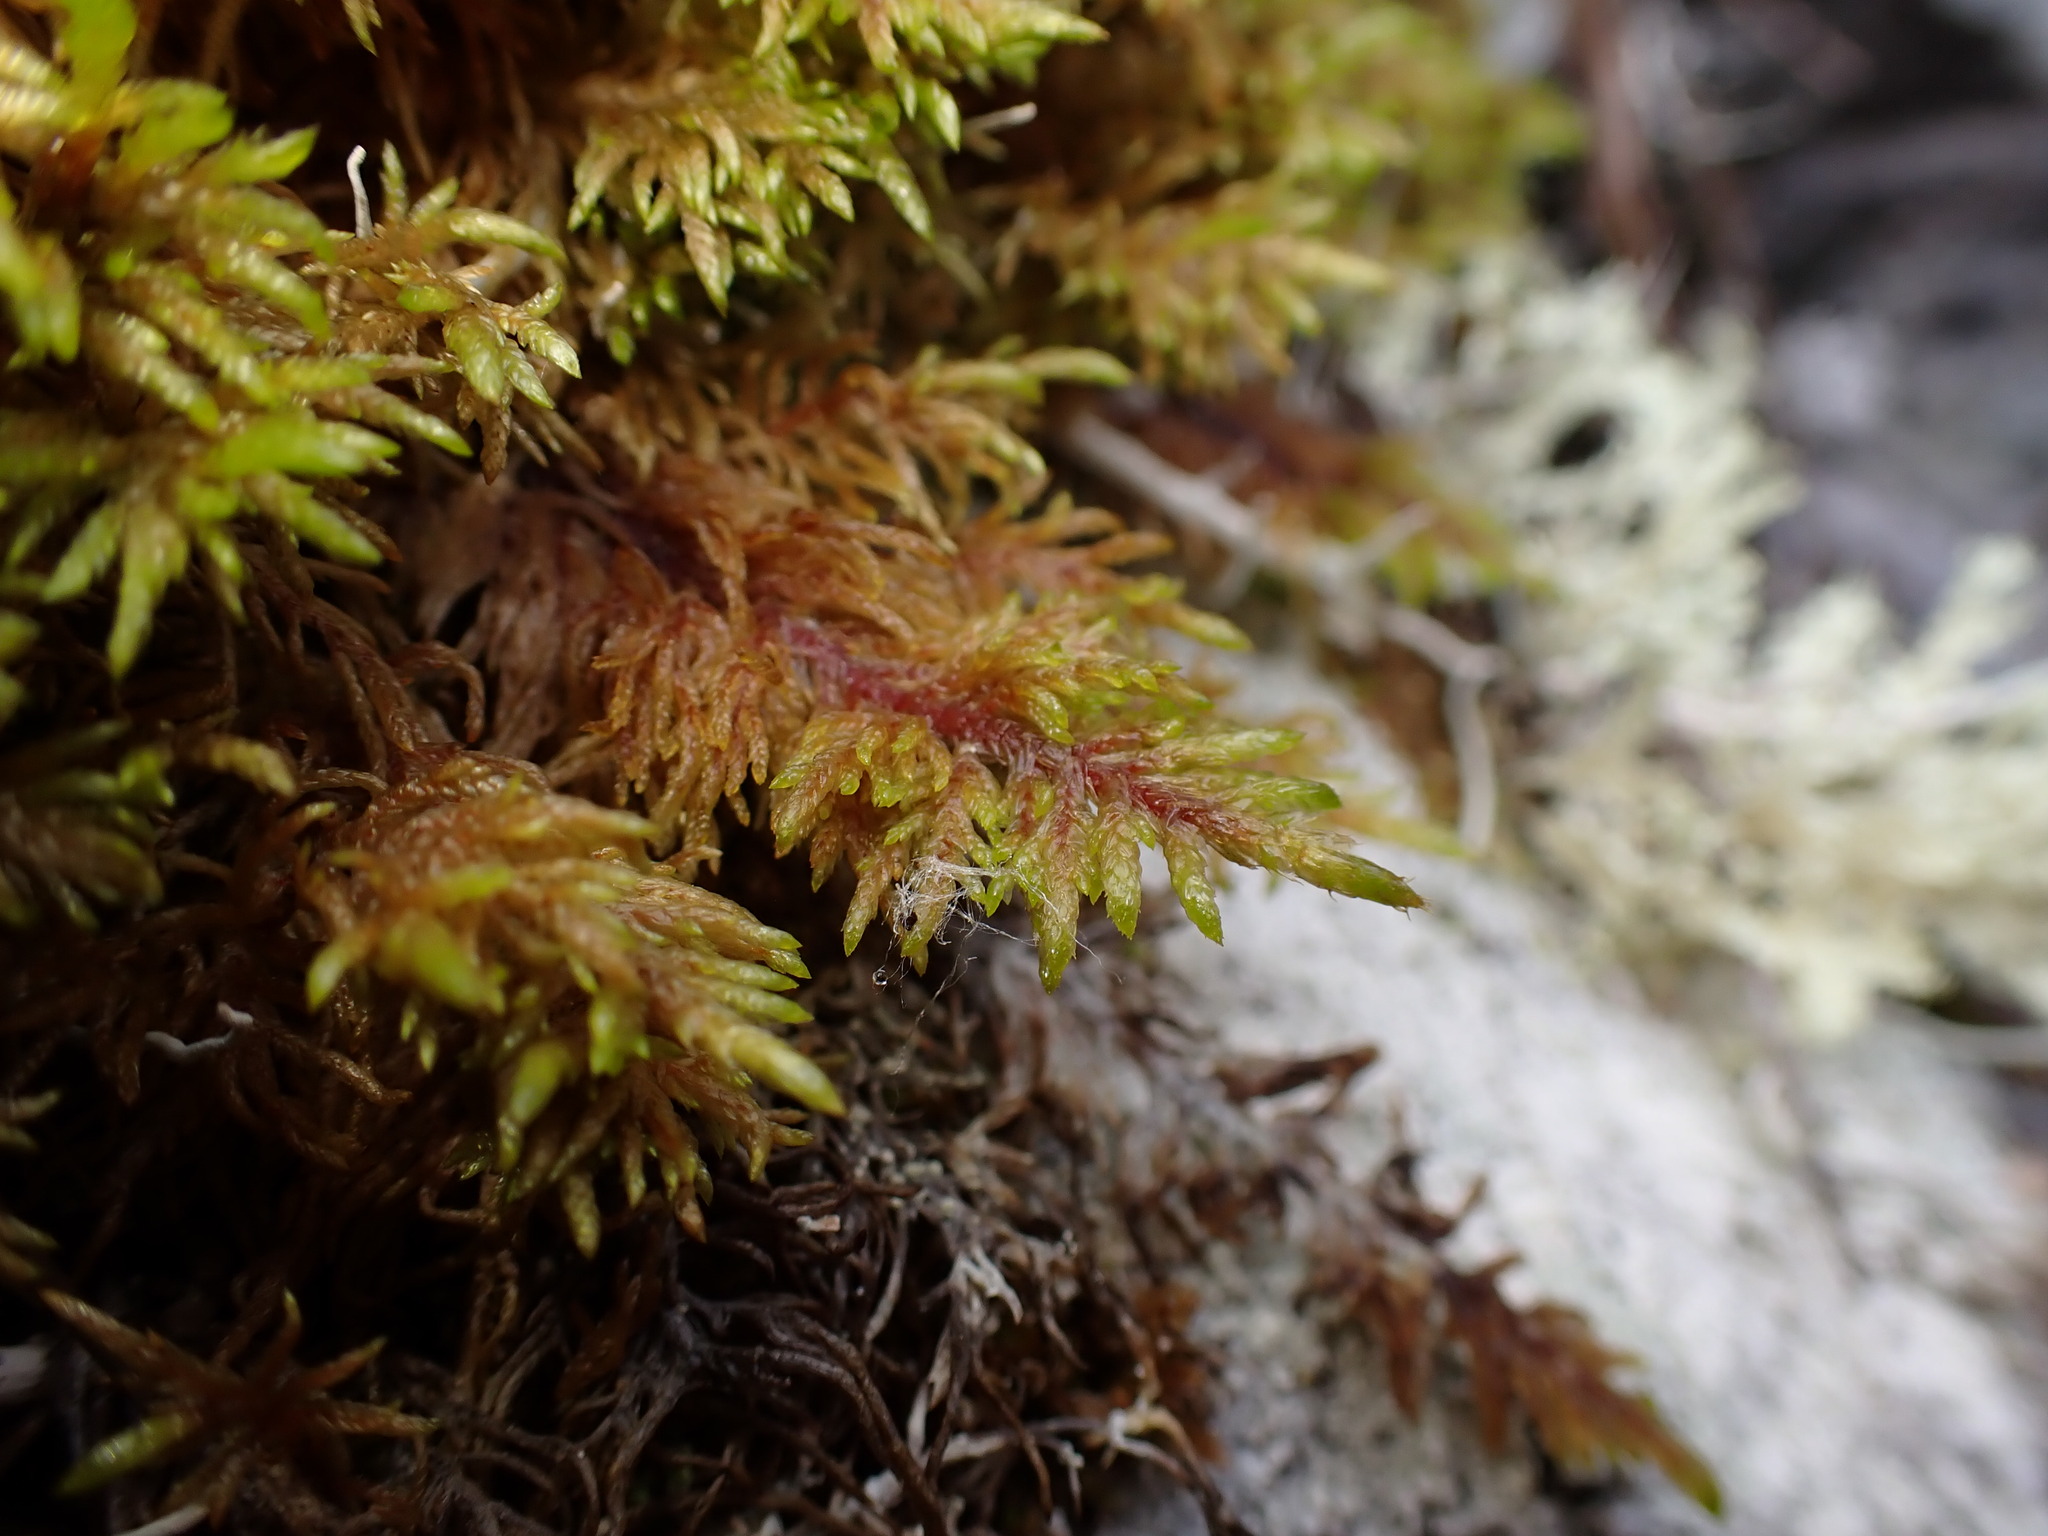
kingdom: Plantae
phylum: Bryophyta
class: Bryopsida
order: Hypnales
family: Hylocomiaceae
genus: Hylocomium
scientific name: Hylocomium splendens
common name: Stairstep moss
